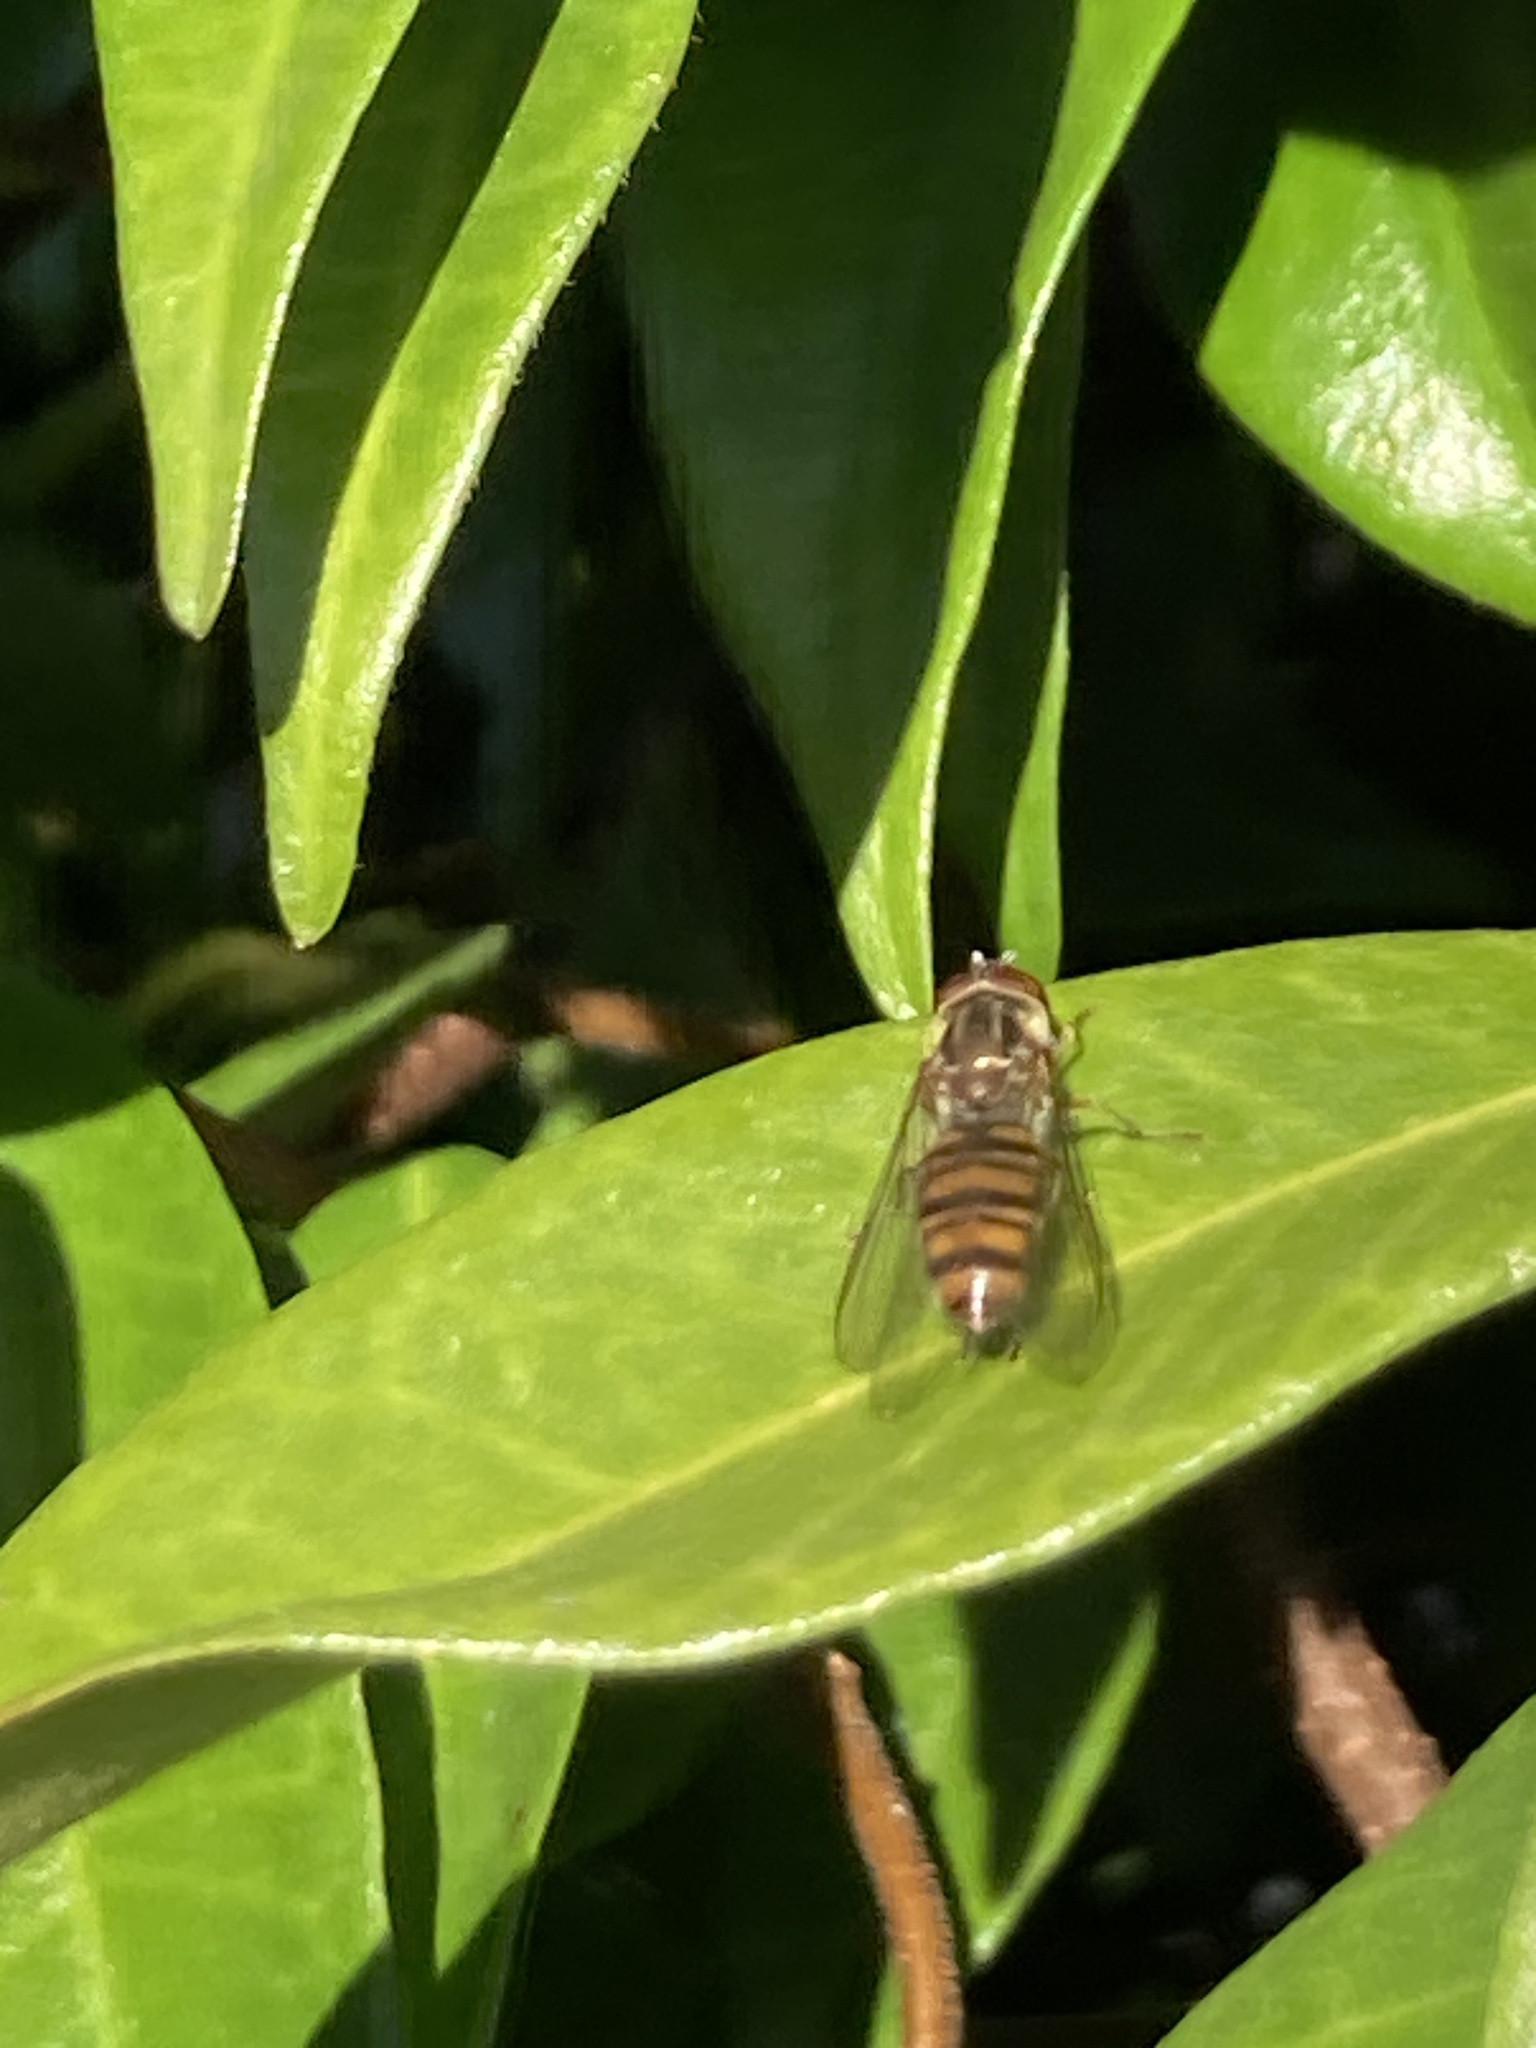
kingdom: Animalia
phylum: Arthropoda
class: Insecta
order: Diptera
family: Syrphidae
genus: Episyrphus
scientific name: Episyrphus balteatus
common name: Marmalade hoverfly
